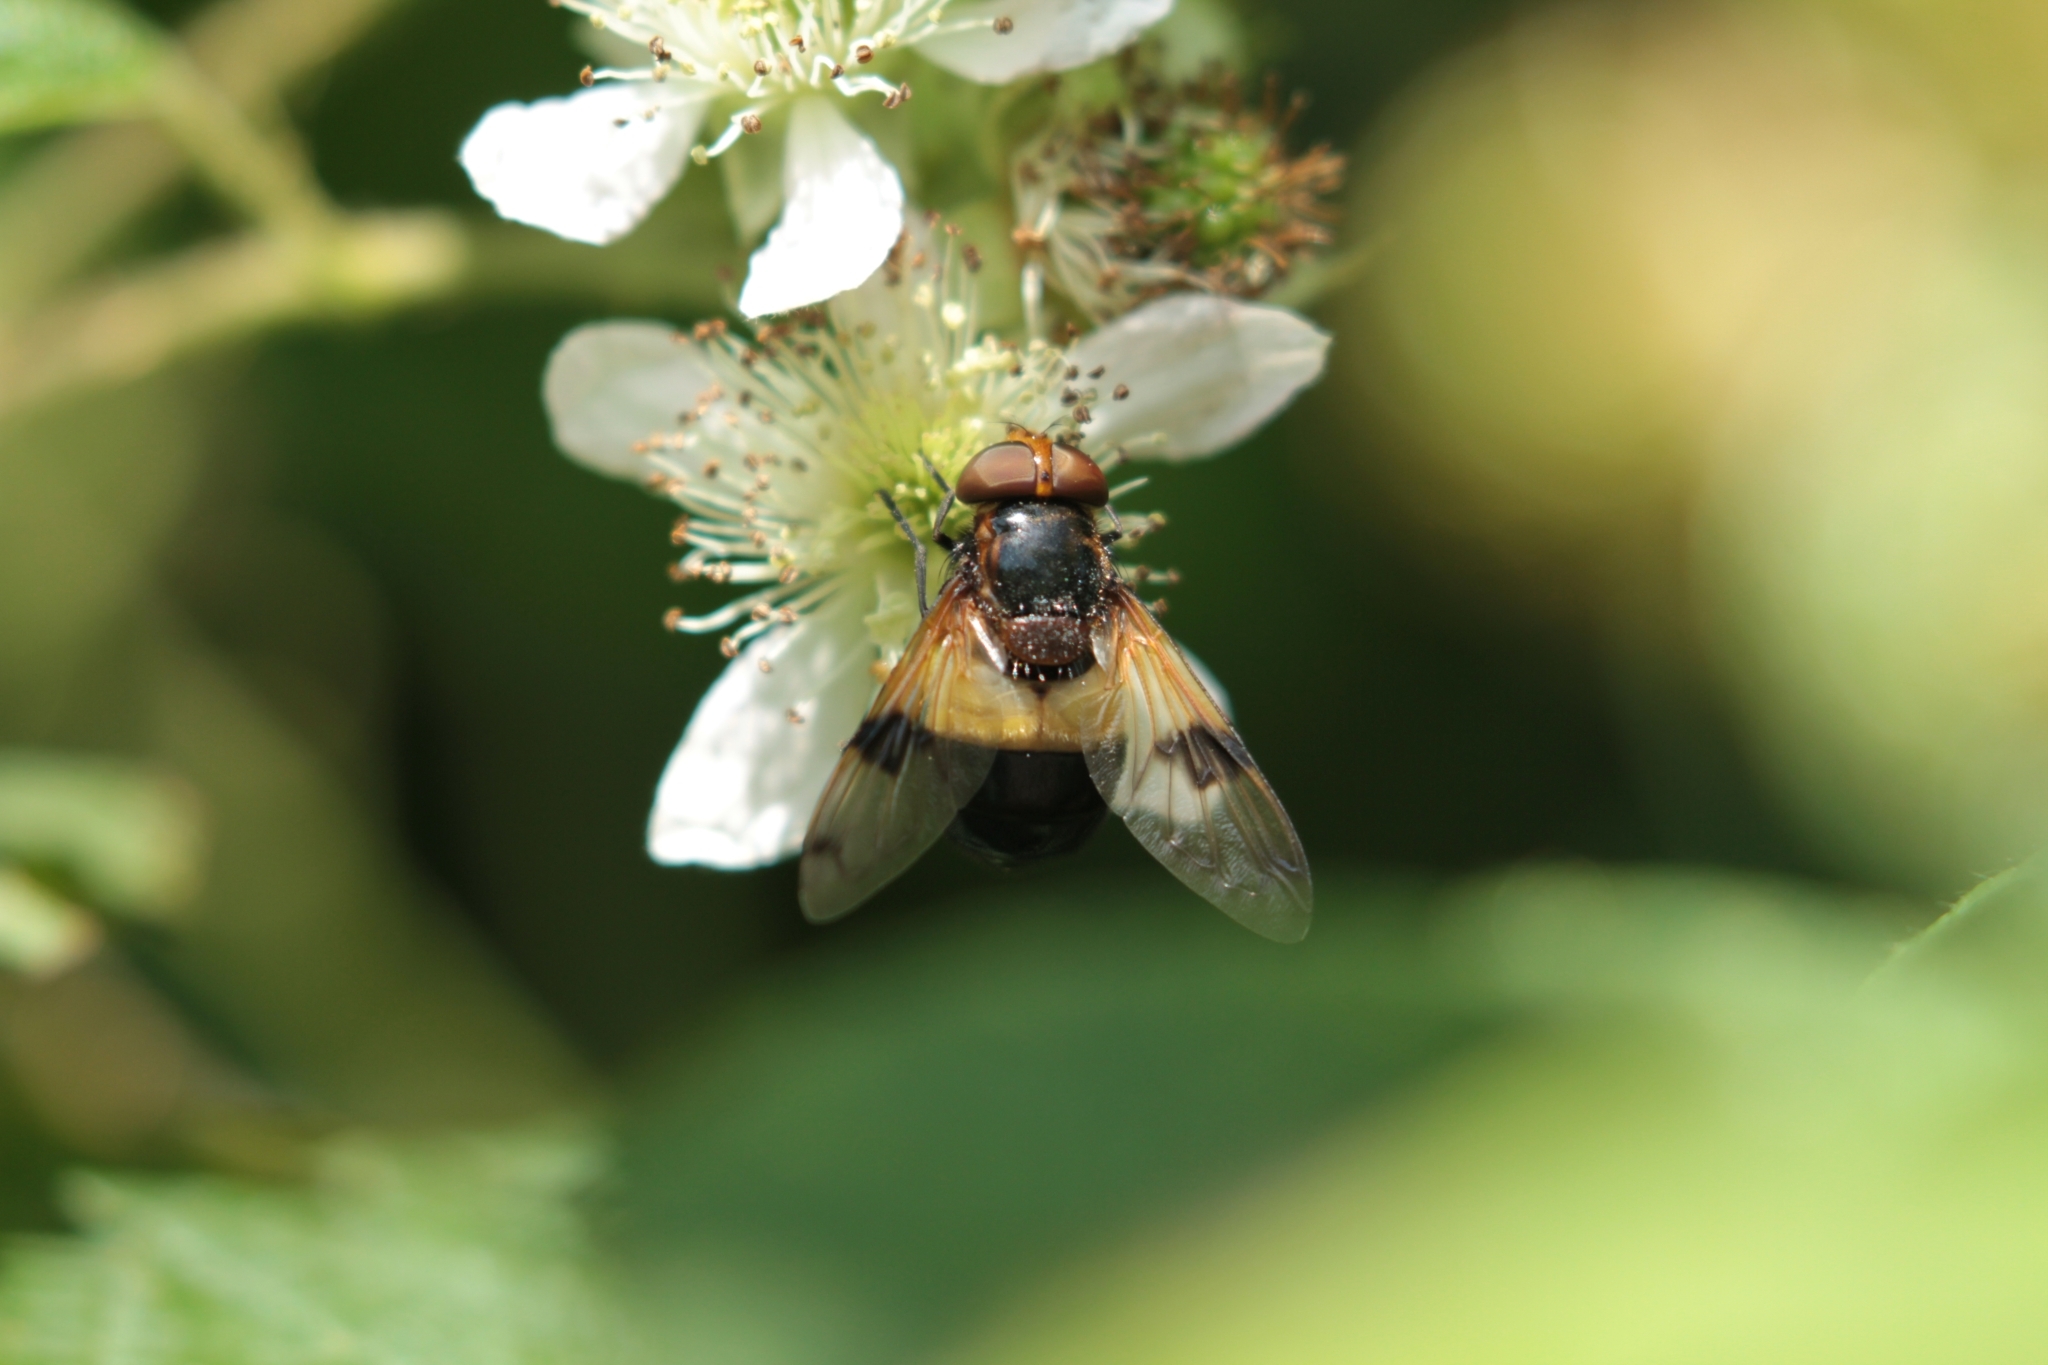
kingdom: Animalia
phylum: Arthropoda
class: Insecta
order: Diptera
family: Syrphidae
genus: Volucella
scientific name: Volucella pellucens
